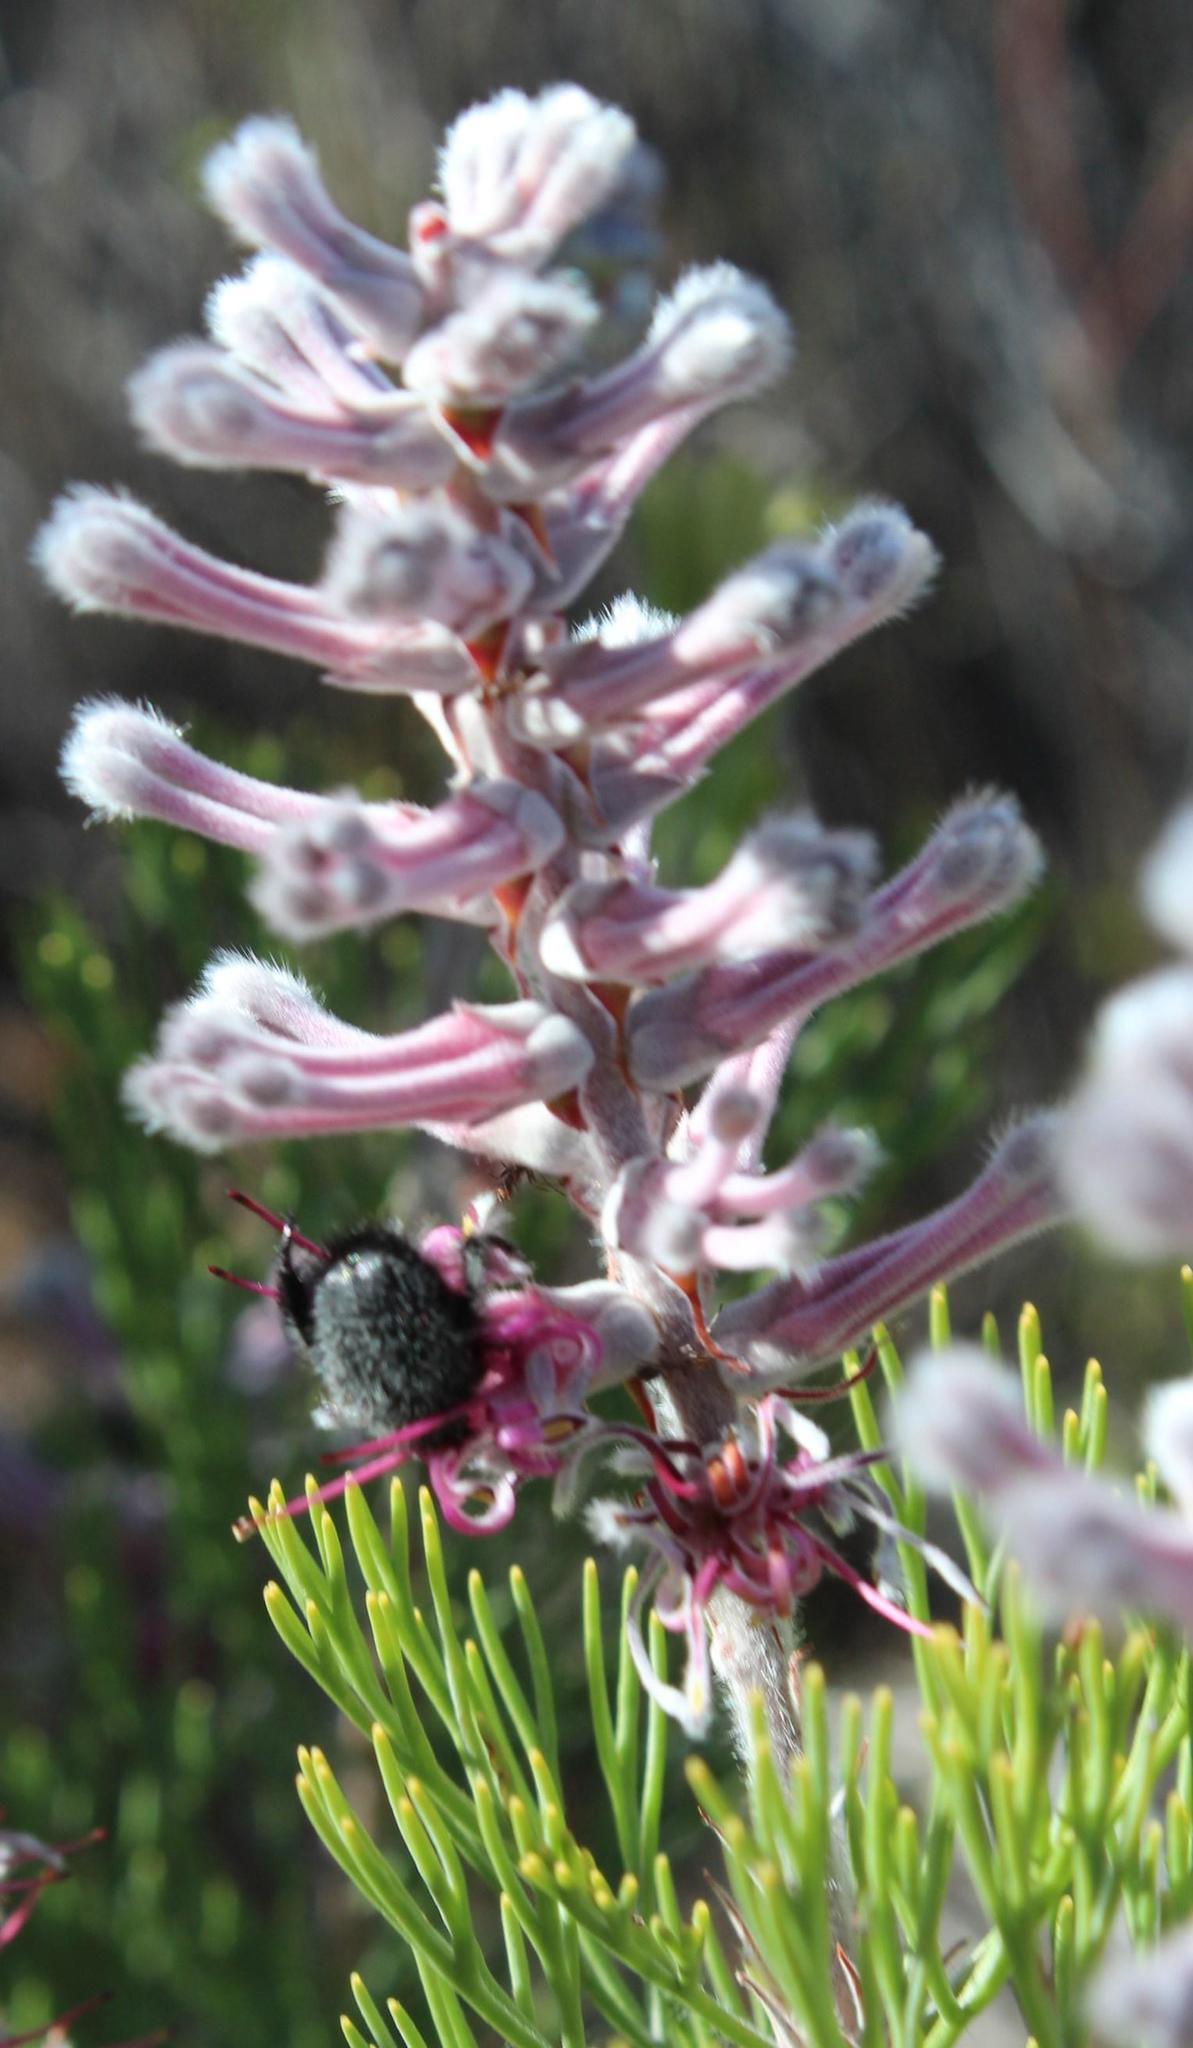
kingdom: Plantae
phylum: Tracheophyta
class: Magnoliopsida
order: Proteales
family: Proteaceae
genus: Paranomus
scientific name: Paranomus bracteolaris
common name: Bokkeveld tree sceptre
